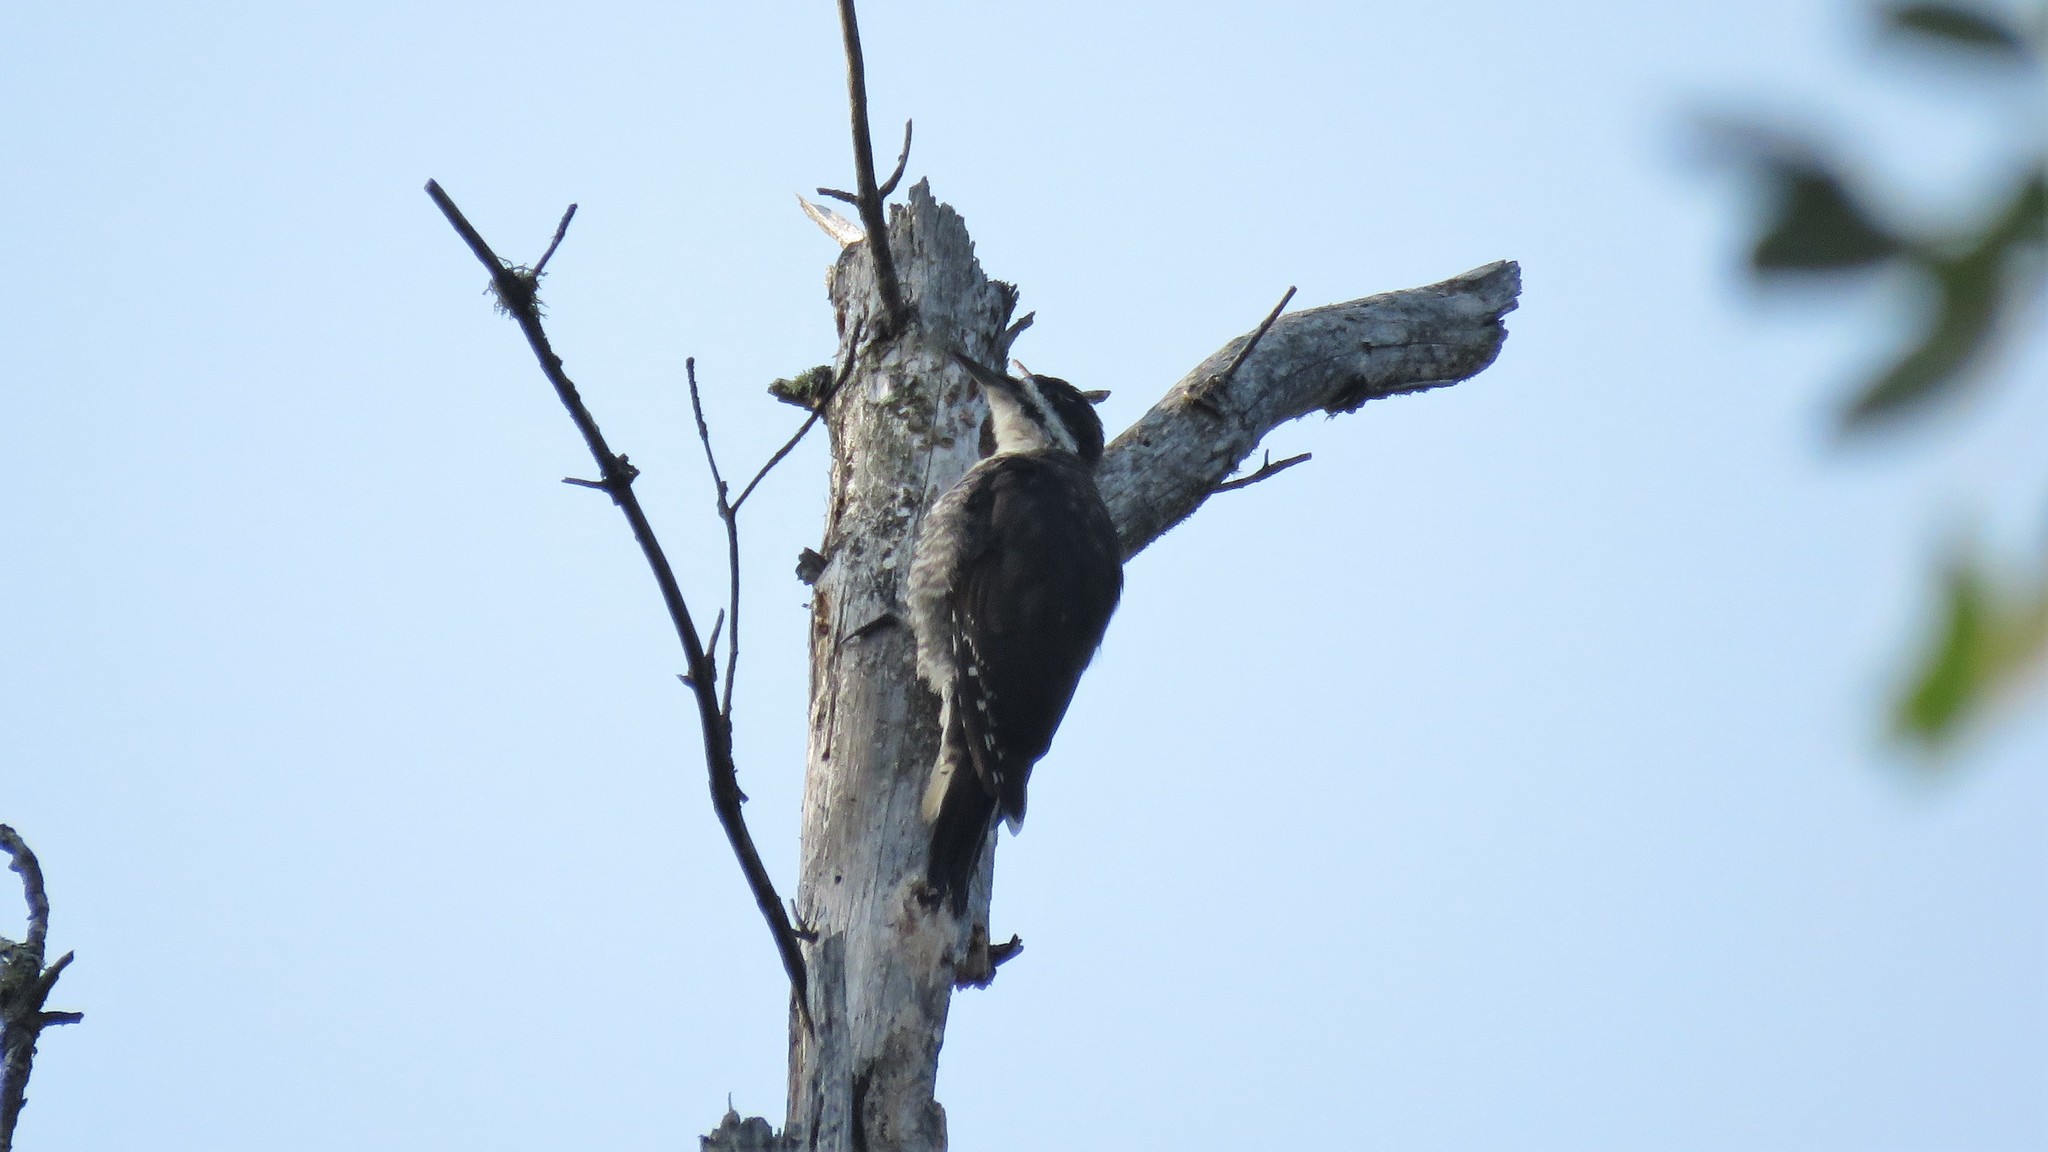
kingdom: Animalia
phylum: Chordata
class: Aves
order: Piciformes
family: Picidae
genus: Picoides
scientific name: Picoides arcticus
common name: Black-backed woodpecker
